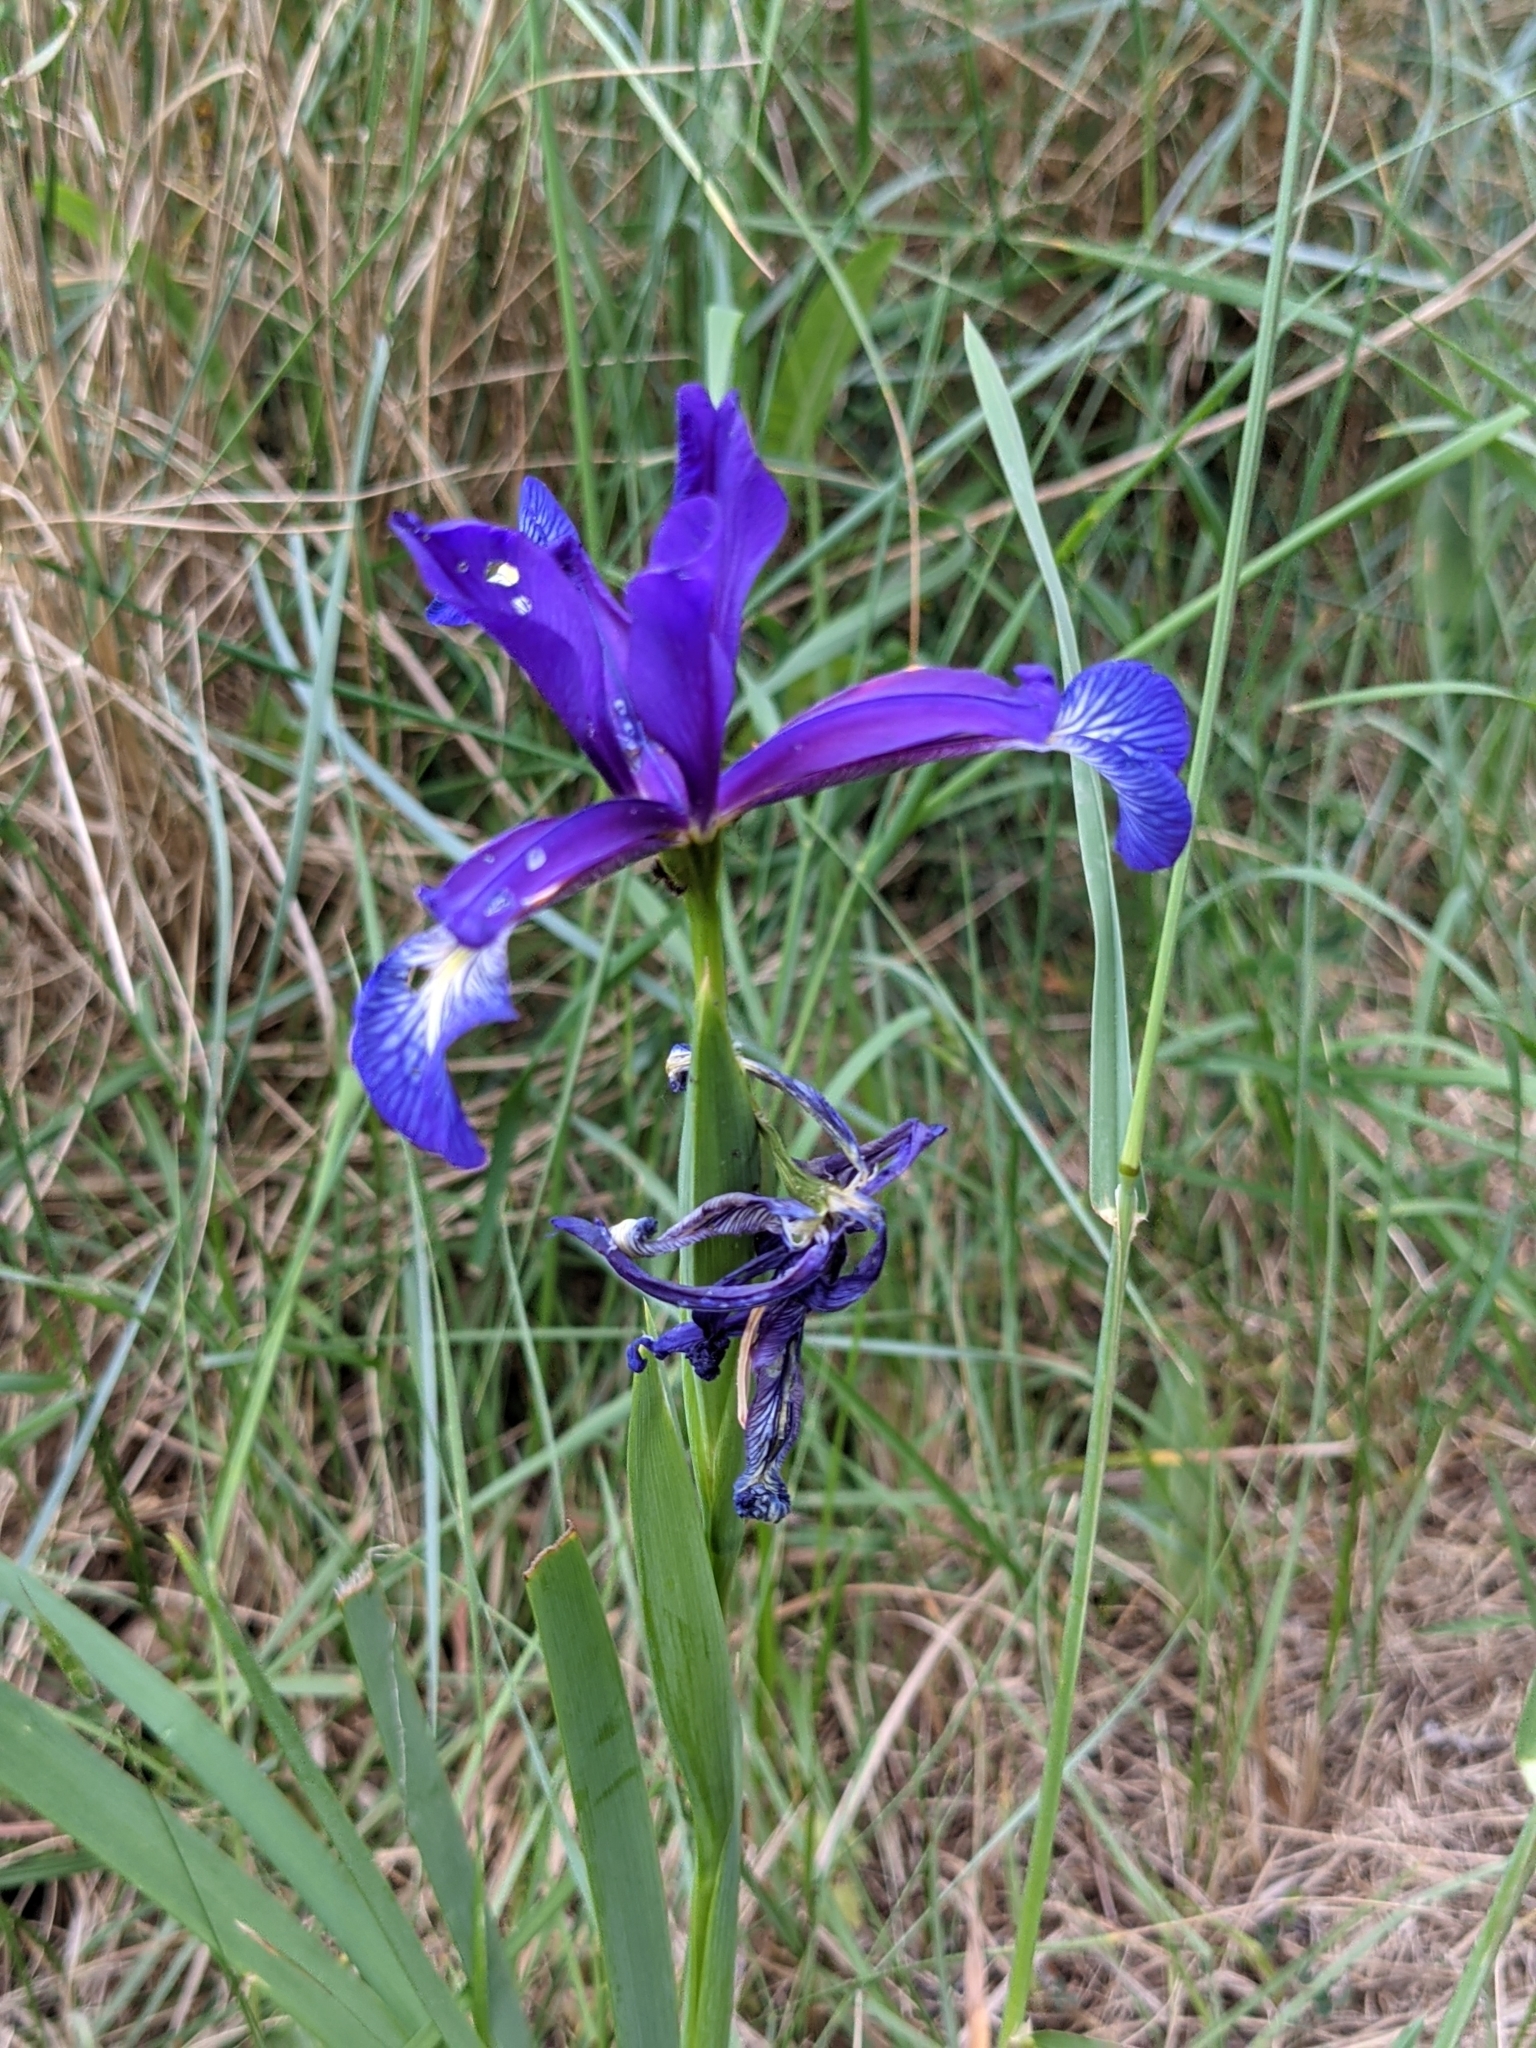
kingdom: Plantae
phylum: Tracheophyta
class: Liliopsida
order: Asparagales
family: Iridaceae
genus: Iris
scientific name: Iris reichenbachiana
